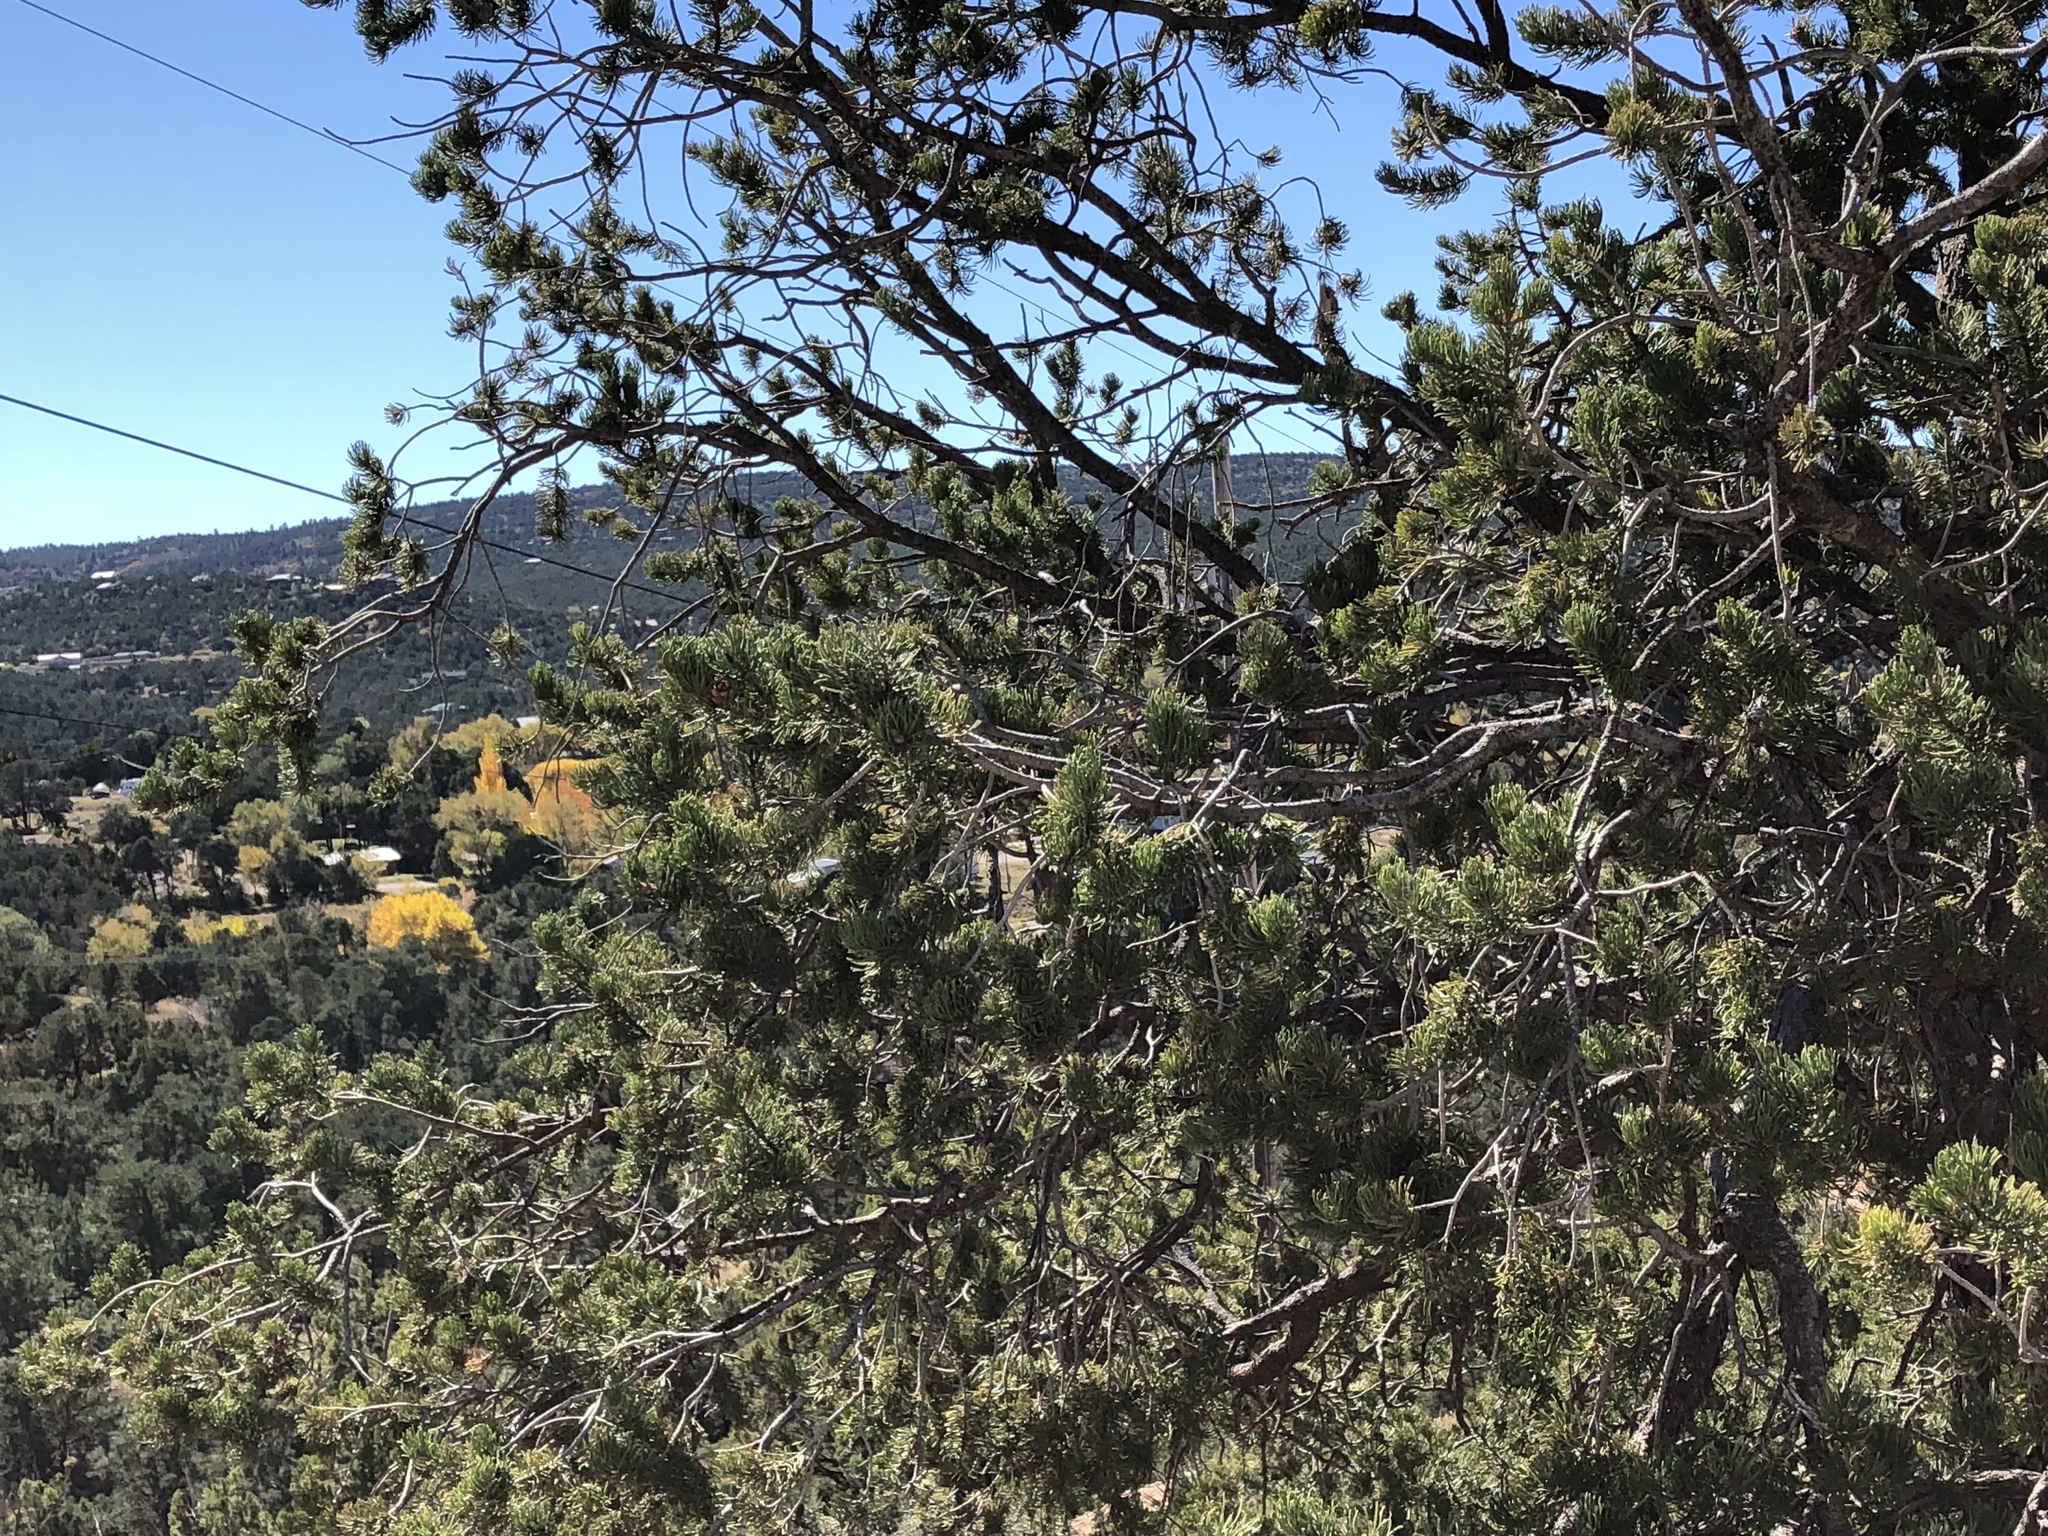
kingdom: Plantae
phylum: Tracheophyta
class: Pinopsida
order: Pinales
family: Pinaceae
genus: Pinus
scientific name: Pinus edulis
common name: Colorado pinyon
